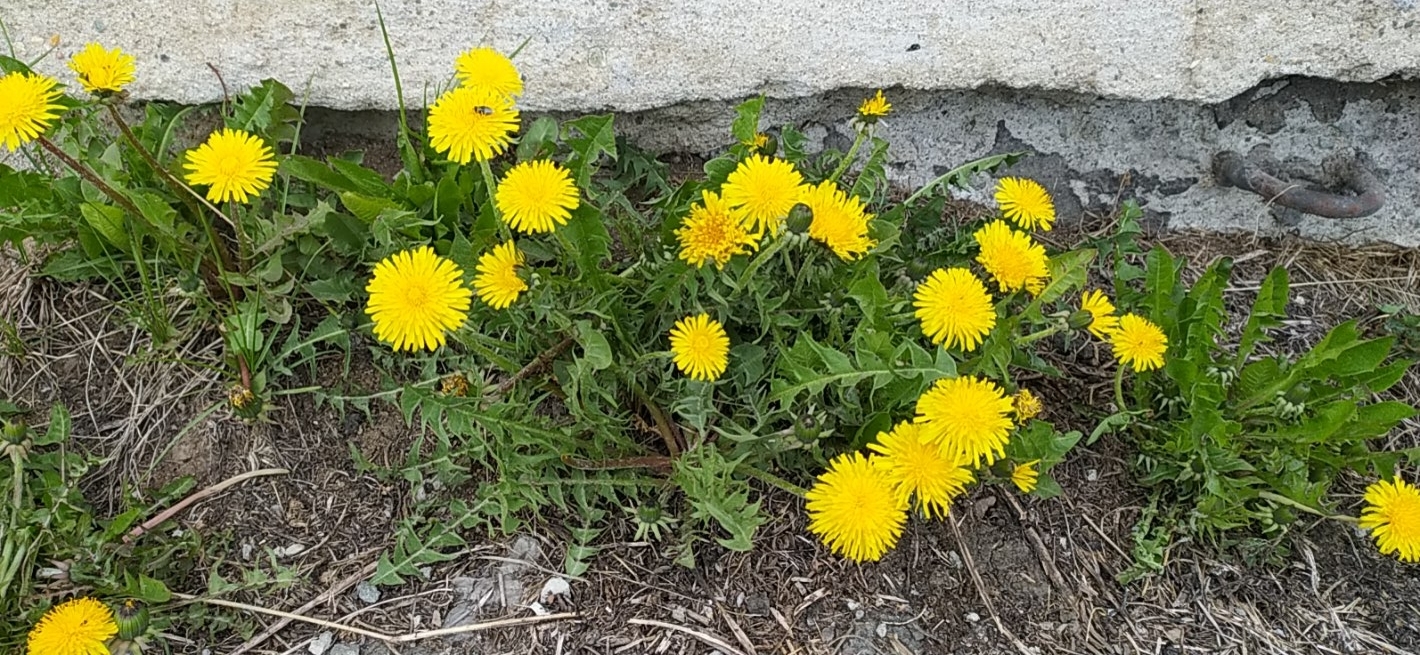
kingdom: Plantae
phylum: Tracheophyta
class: Magnoliopsida
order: Asterales
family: Asteraceae
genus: Taraxacum
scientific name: Taraxacum officinale
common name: Common dandelion
